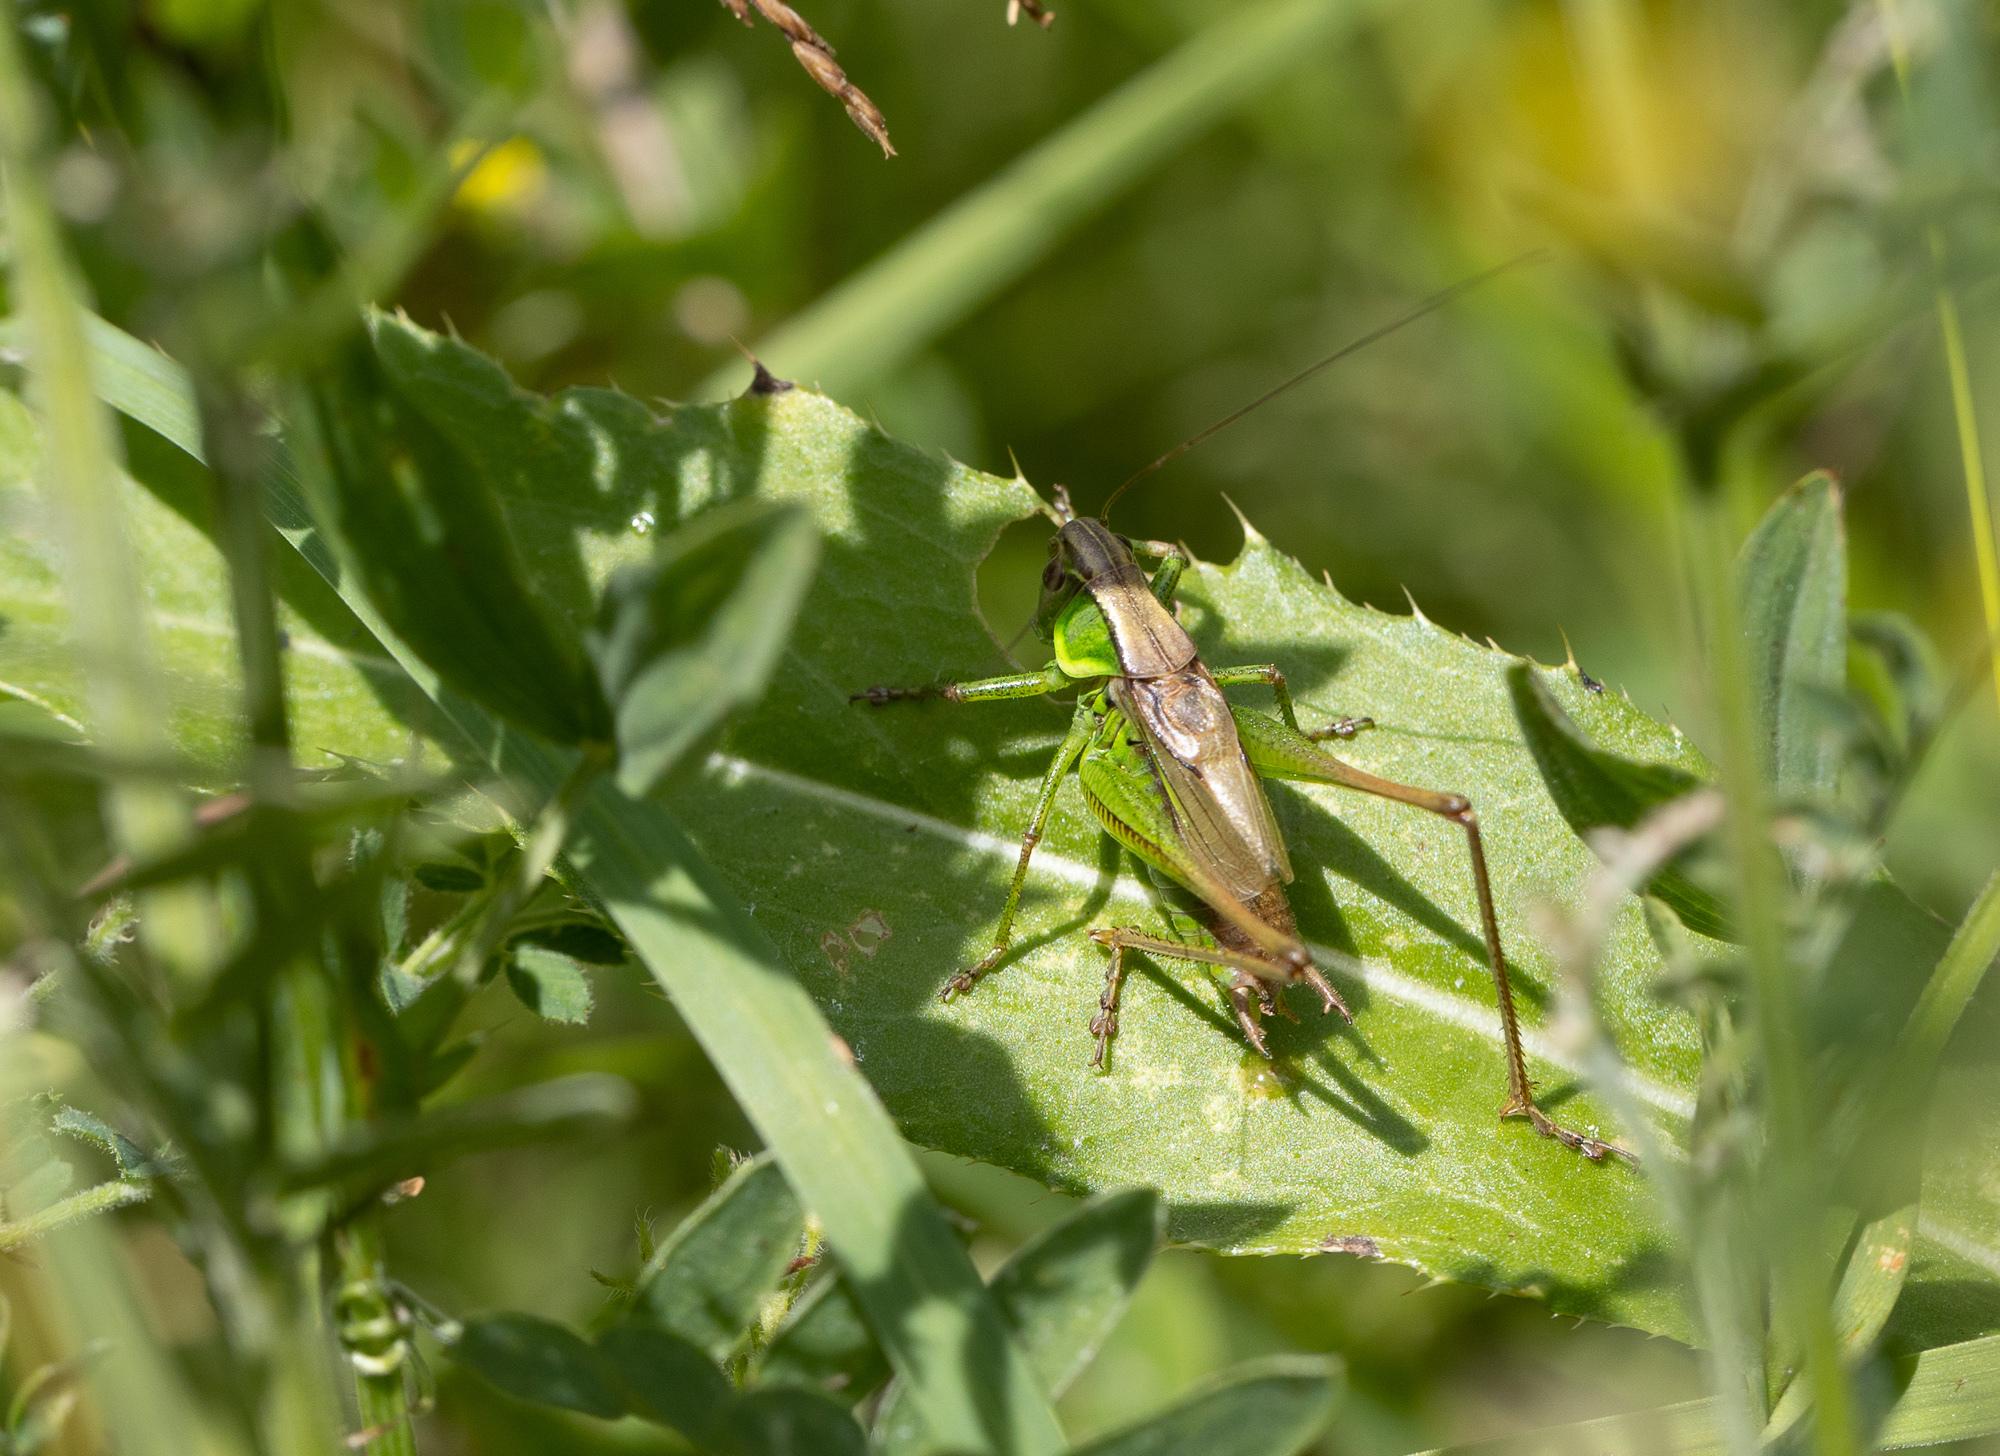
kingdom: Animalia
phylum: Arthropoda
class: Insecta
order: Orthoptera
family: Tettigoniidae
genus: Roeseliana
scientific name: Roeseliana roeselii
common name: Roesel's bush cricket
